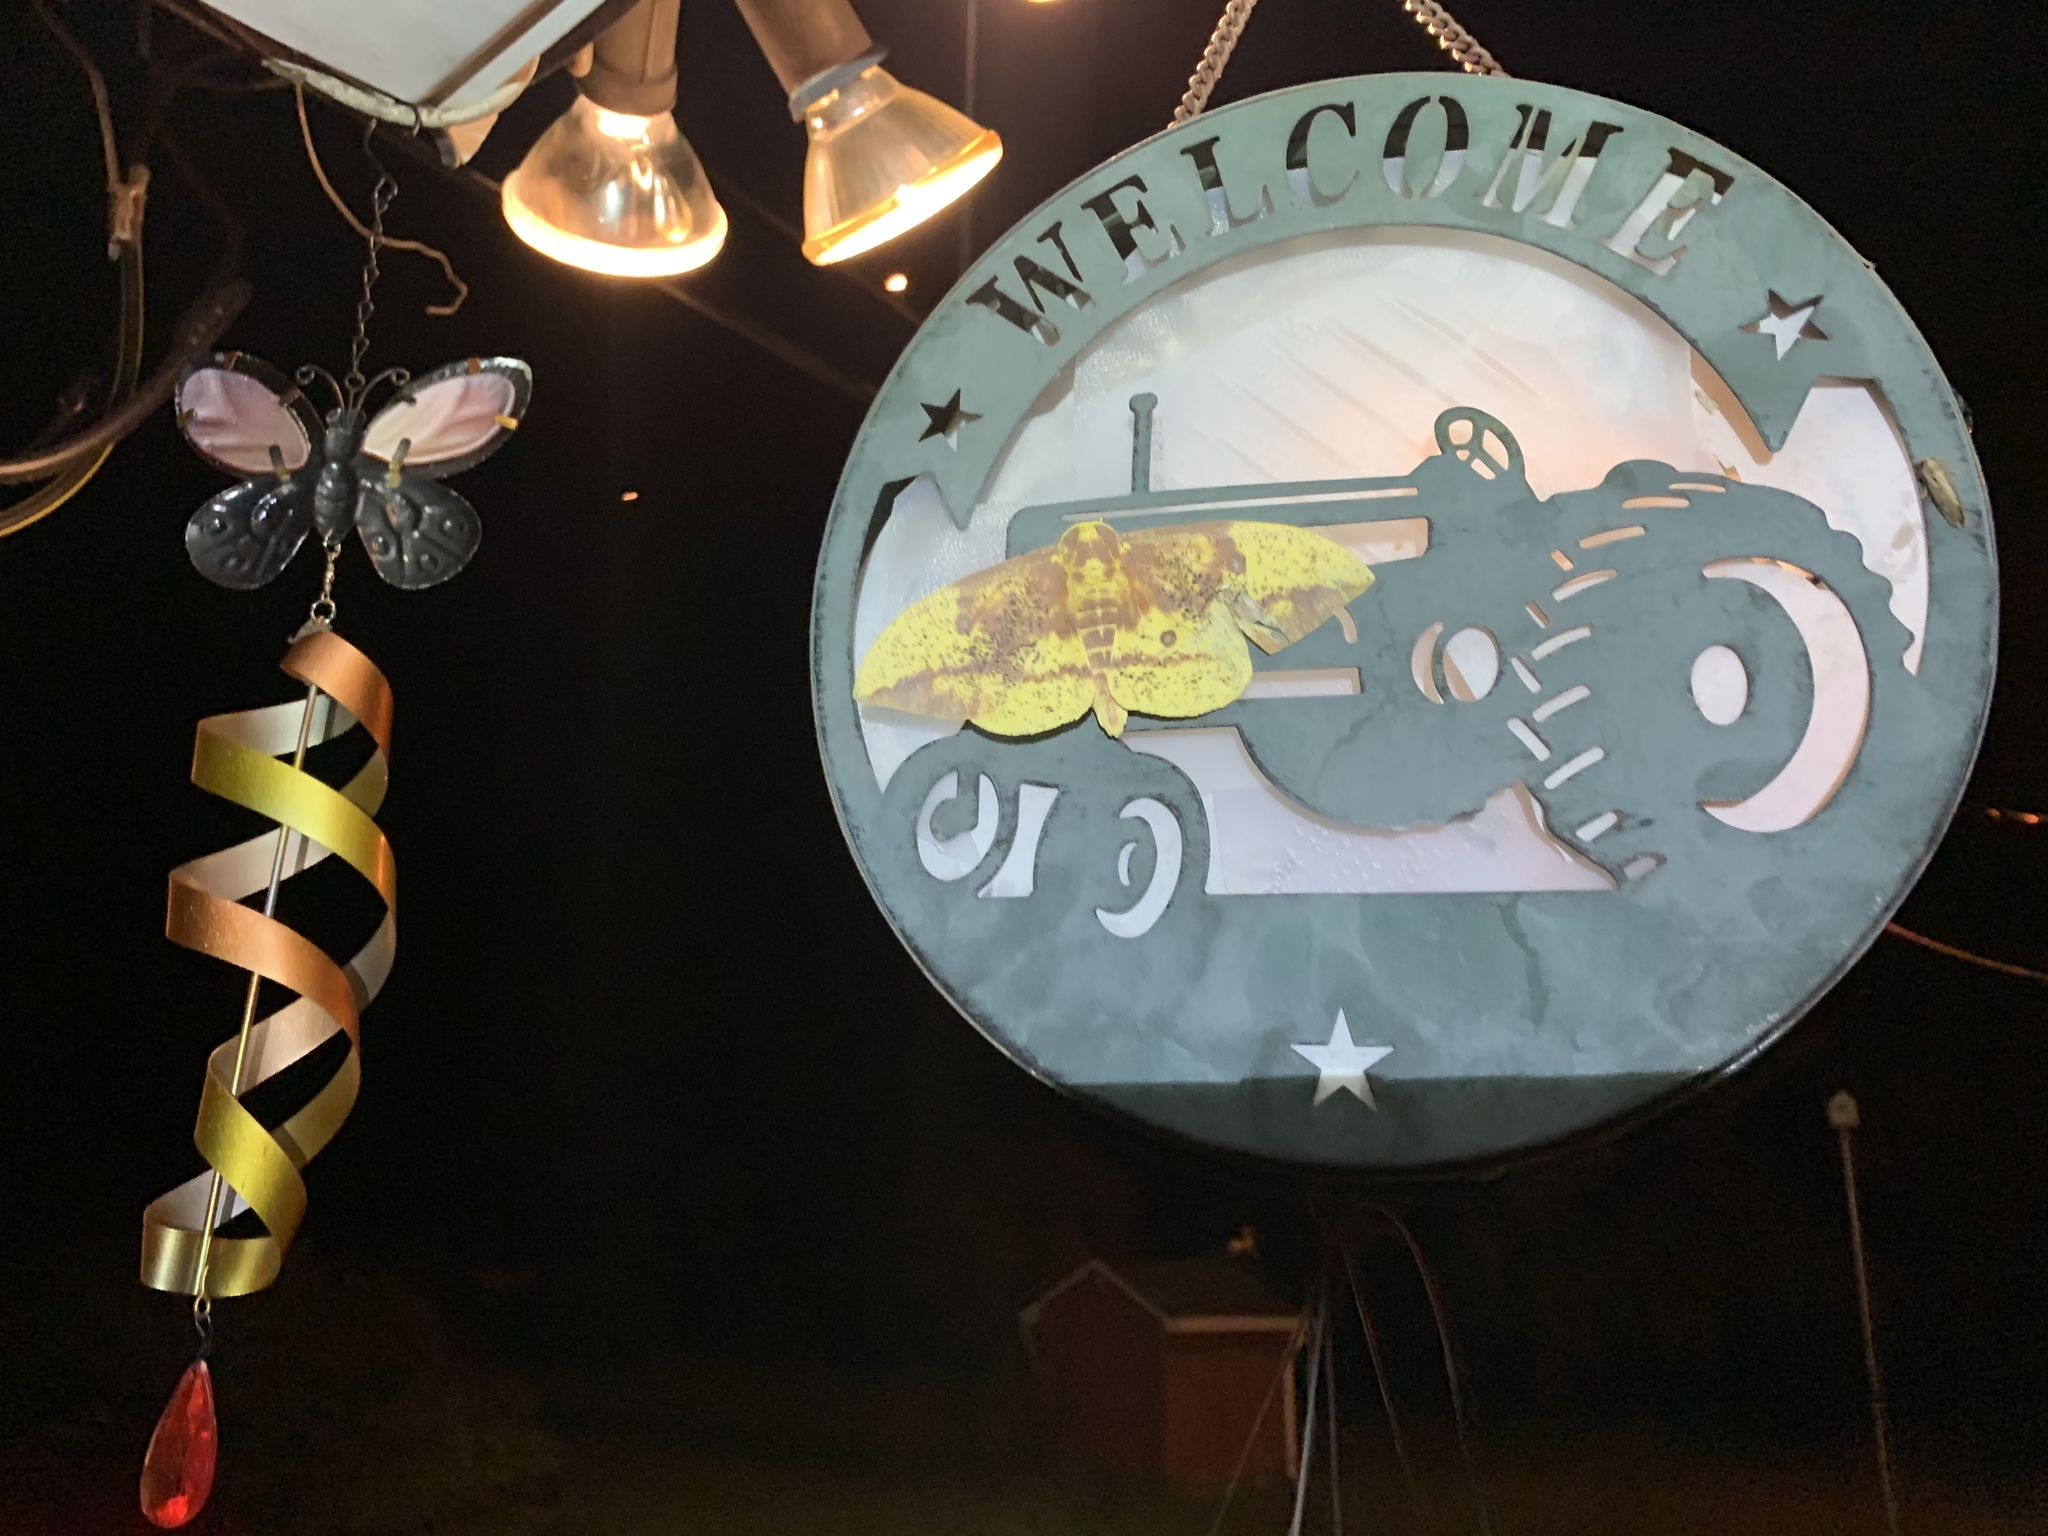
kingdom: Animalia
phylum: Arthropoda
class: Insecta
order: Lepidoptera
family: Saturniidae
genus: Eacles
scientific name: Eacles imperialis
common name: Imperial moth
